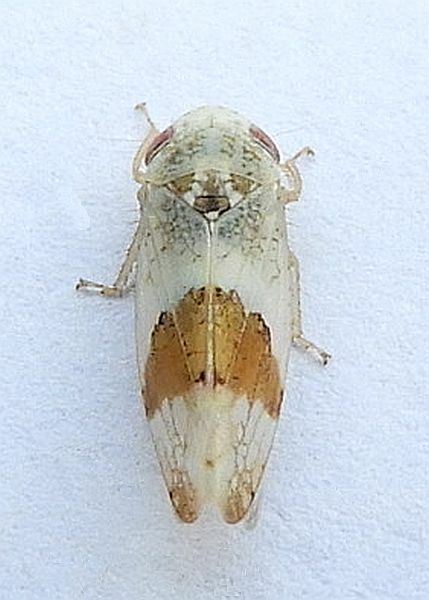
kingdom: Animalia
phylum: Arthropoda
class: Insecta
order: Hemiptera
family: Cicadellidae
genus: Norvellina
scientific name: Norvellina seminuda
